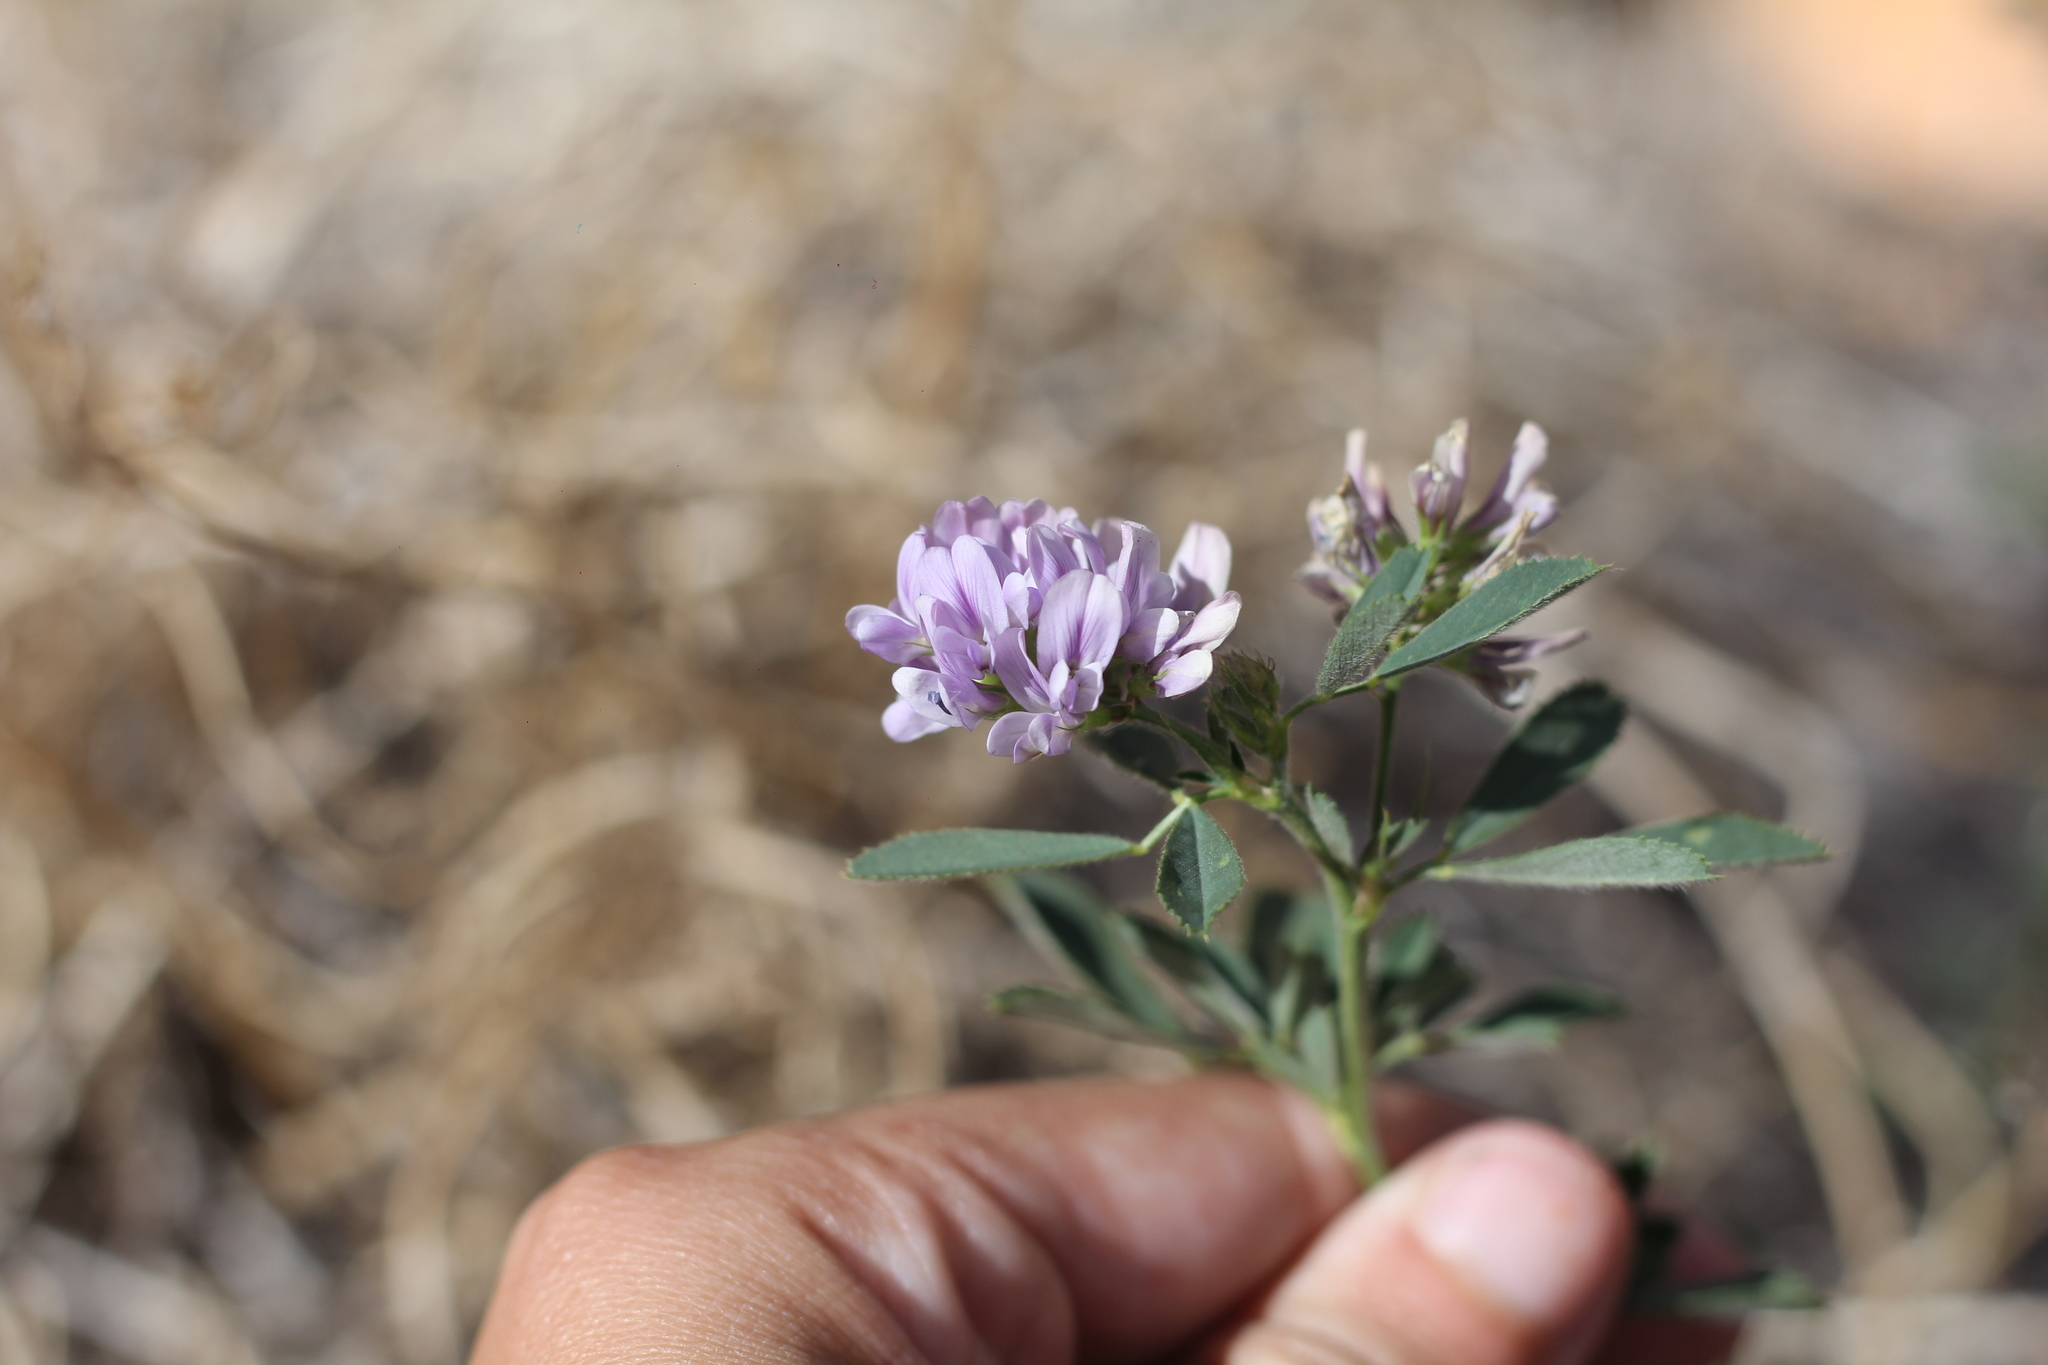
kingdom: Plantae
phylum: Tracheophyta
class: Magnoliopsida
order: Fabales
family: Fabaceae
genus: Medicago
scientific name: Medicago sativa
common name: Alfalfa
